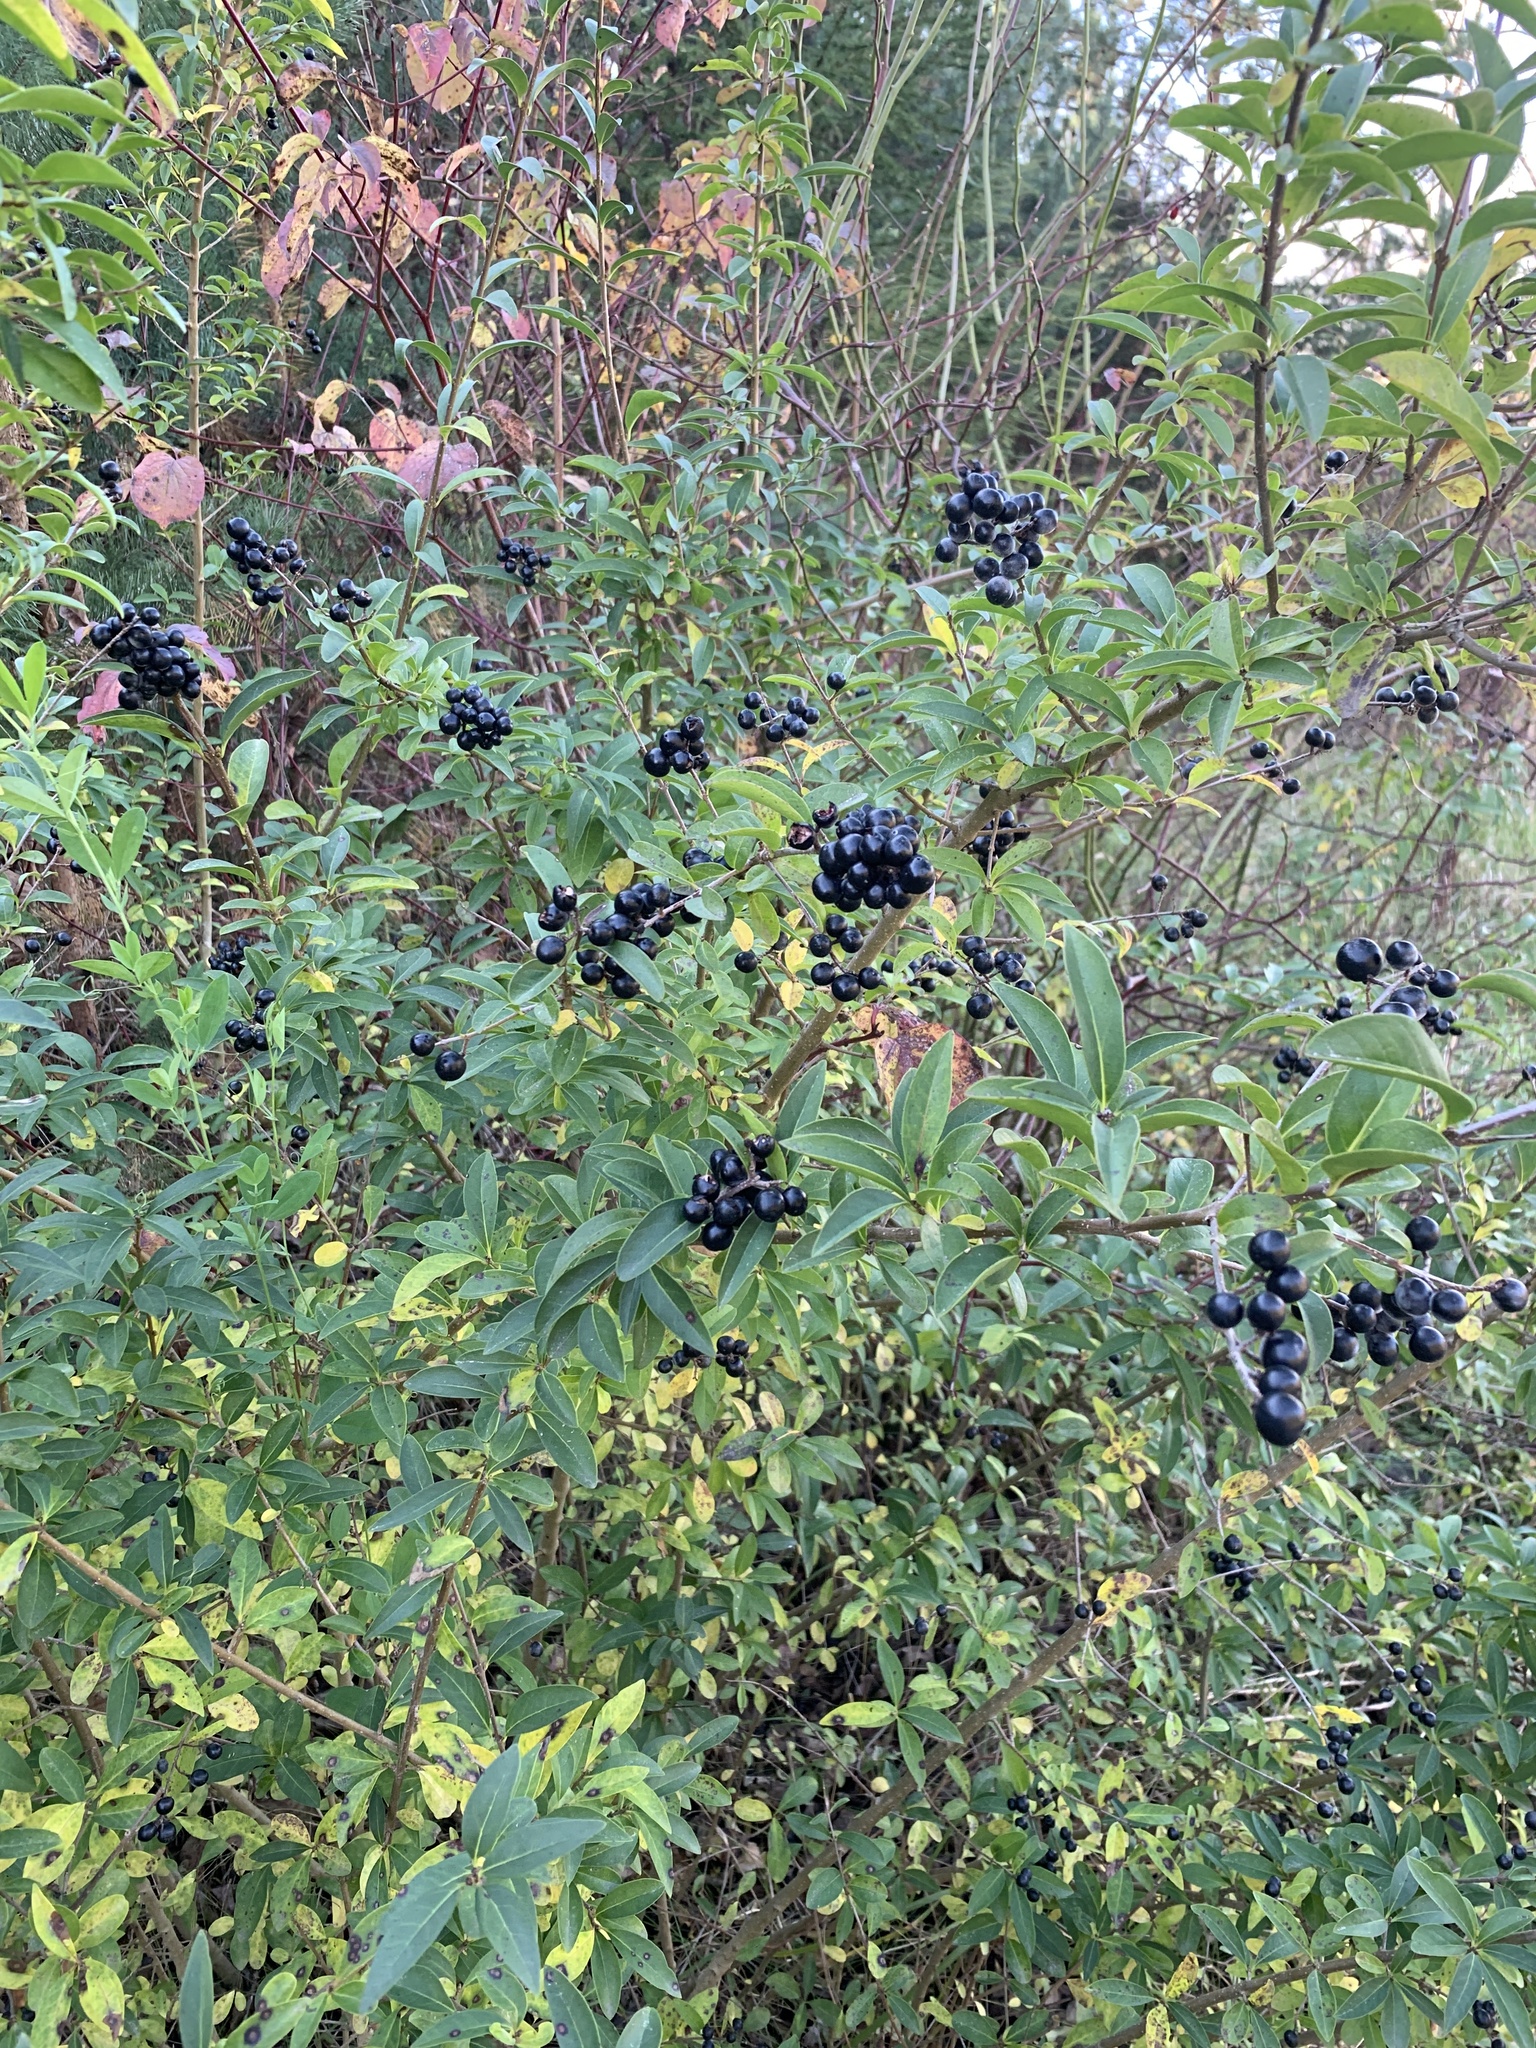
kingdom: Plantae
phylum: Tracheophyta
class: Magnoliopsida
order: Lamiales
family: Oleaceae
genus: Ligustrum
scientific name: Ligustrum vulgare
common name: Wild privet
